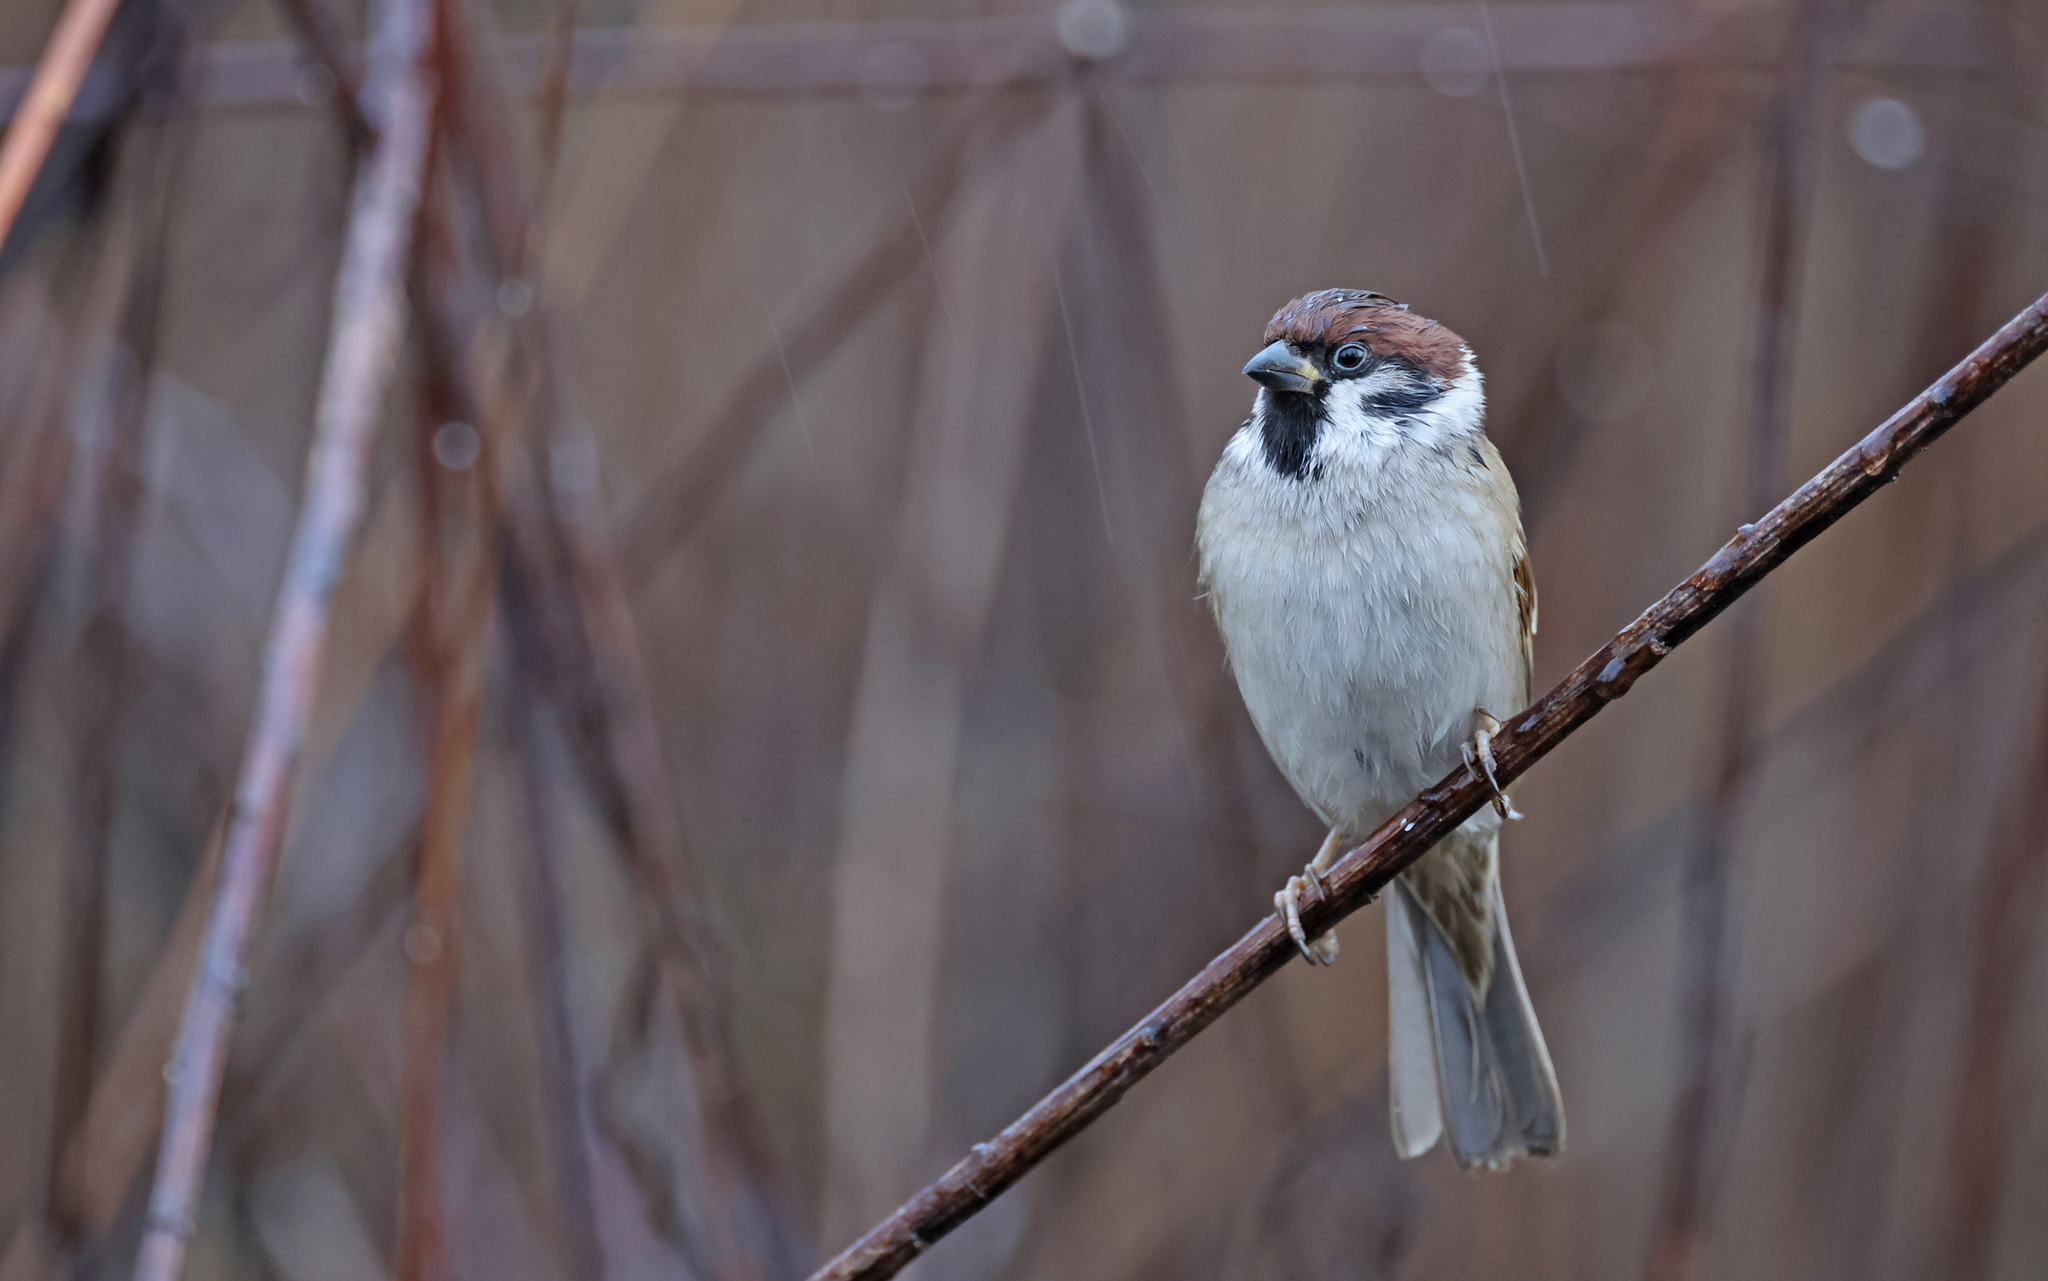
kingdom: Animalia
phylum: Chordata
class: Aves
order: Passeriformes
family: Passeridae
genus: Passer
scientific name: Passer montanus
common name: Eurasian tree sparrow
